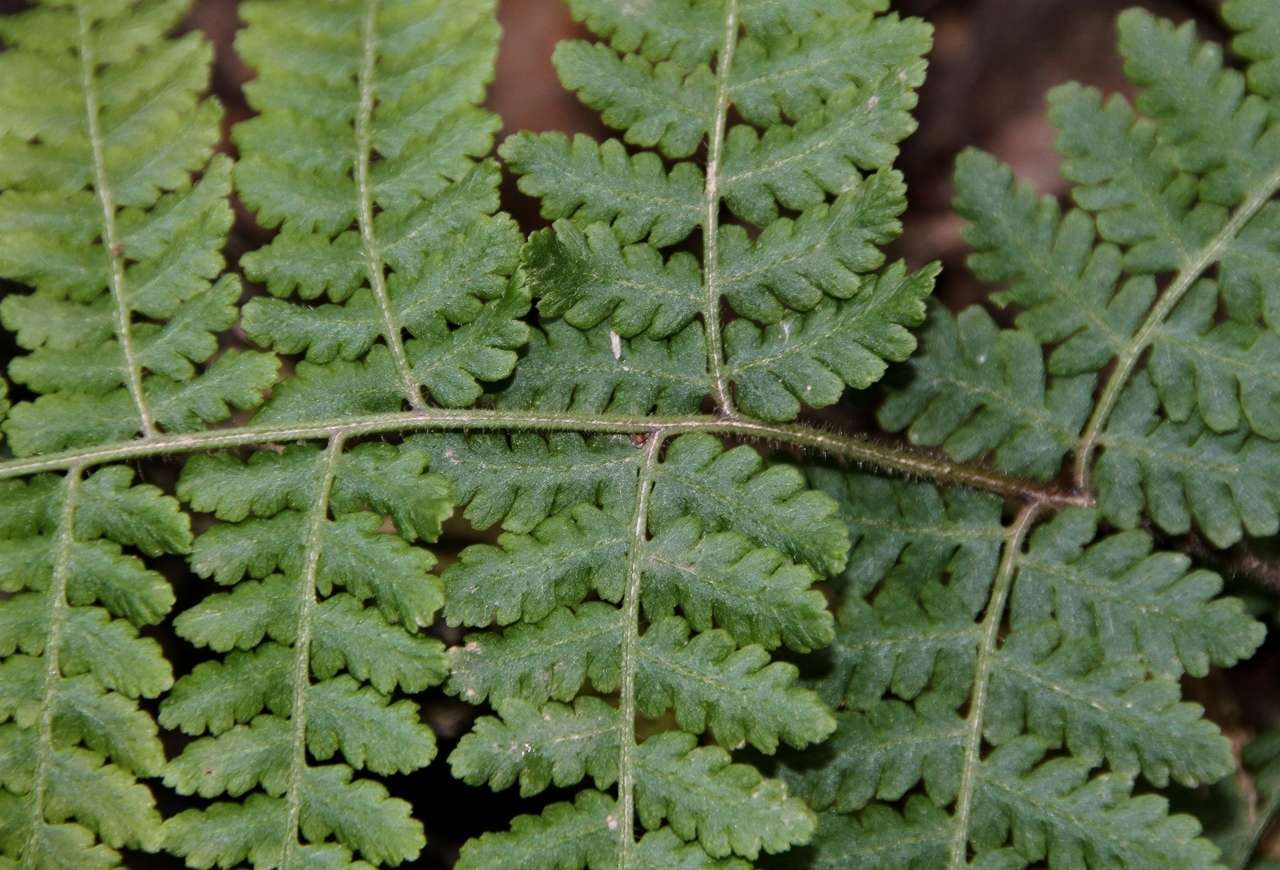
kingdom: Plantae
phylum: Tracheophyta
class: Polypodiopsida
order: Cyatheales
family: Dicksoniaceae
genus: Calochlaena
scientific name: Calochlaena dubia
